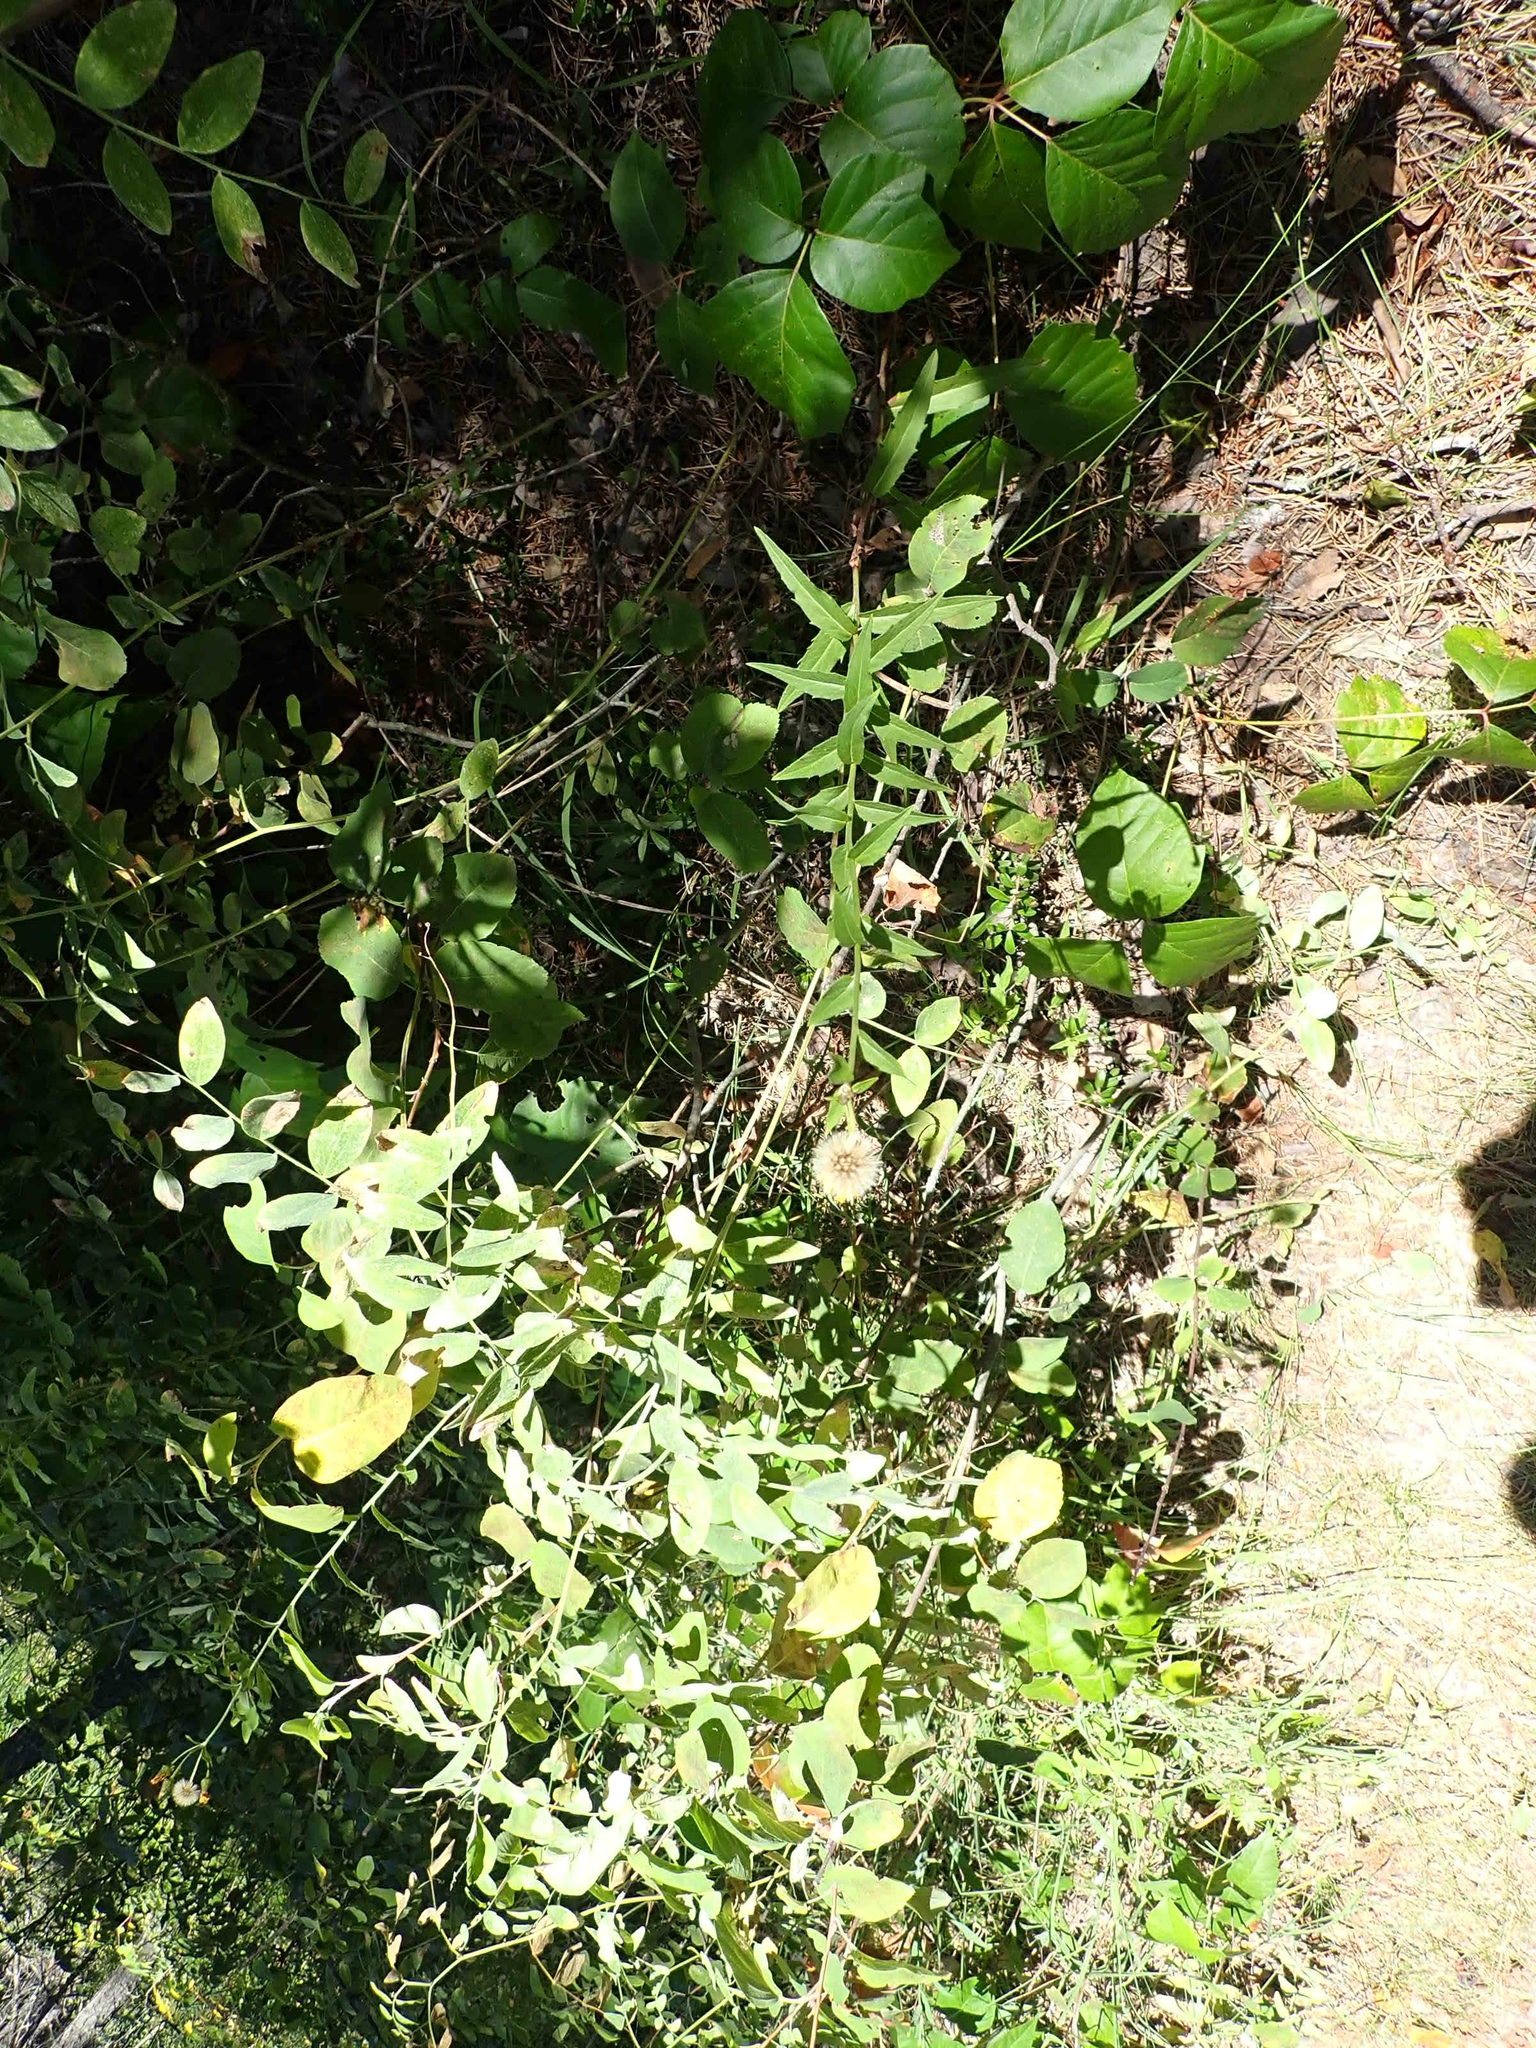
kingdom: Plantae
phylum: Tracheophyta
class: Magnoliopsida
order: Asterales
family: Asteraceae
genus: Hieracium
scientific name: Hieracium umbellatum
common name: Northern hawkweed
